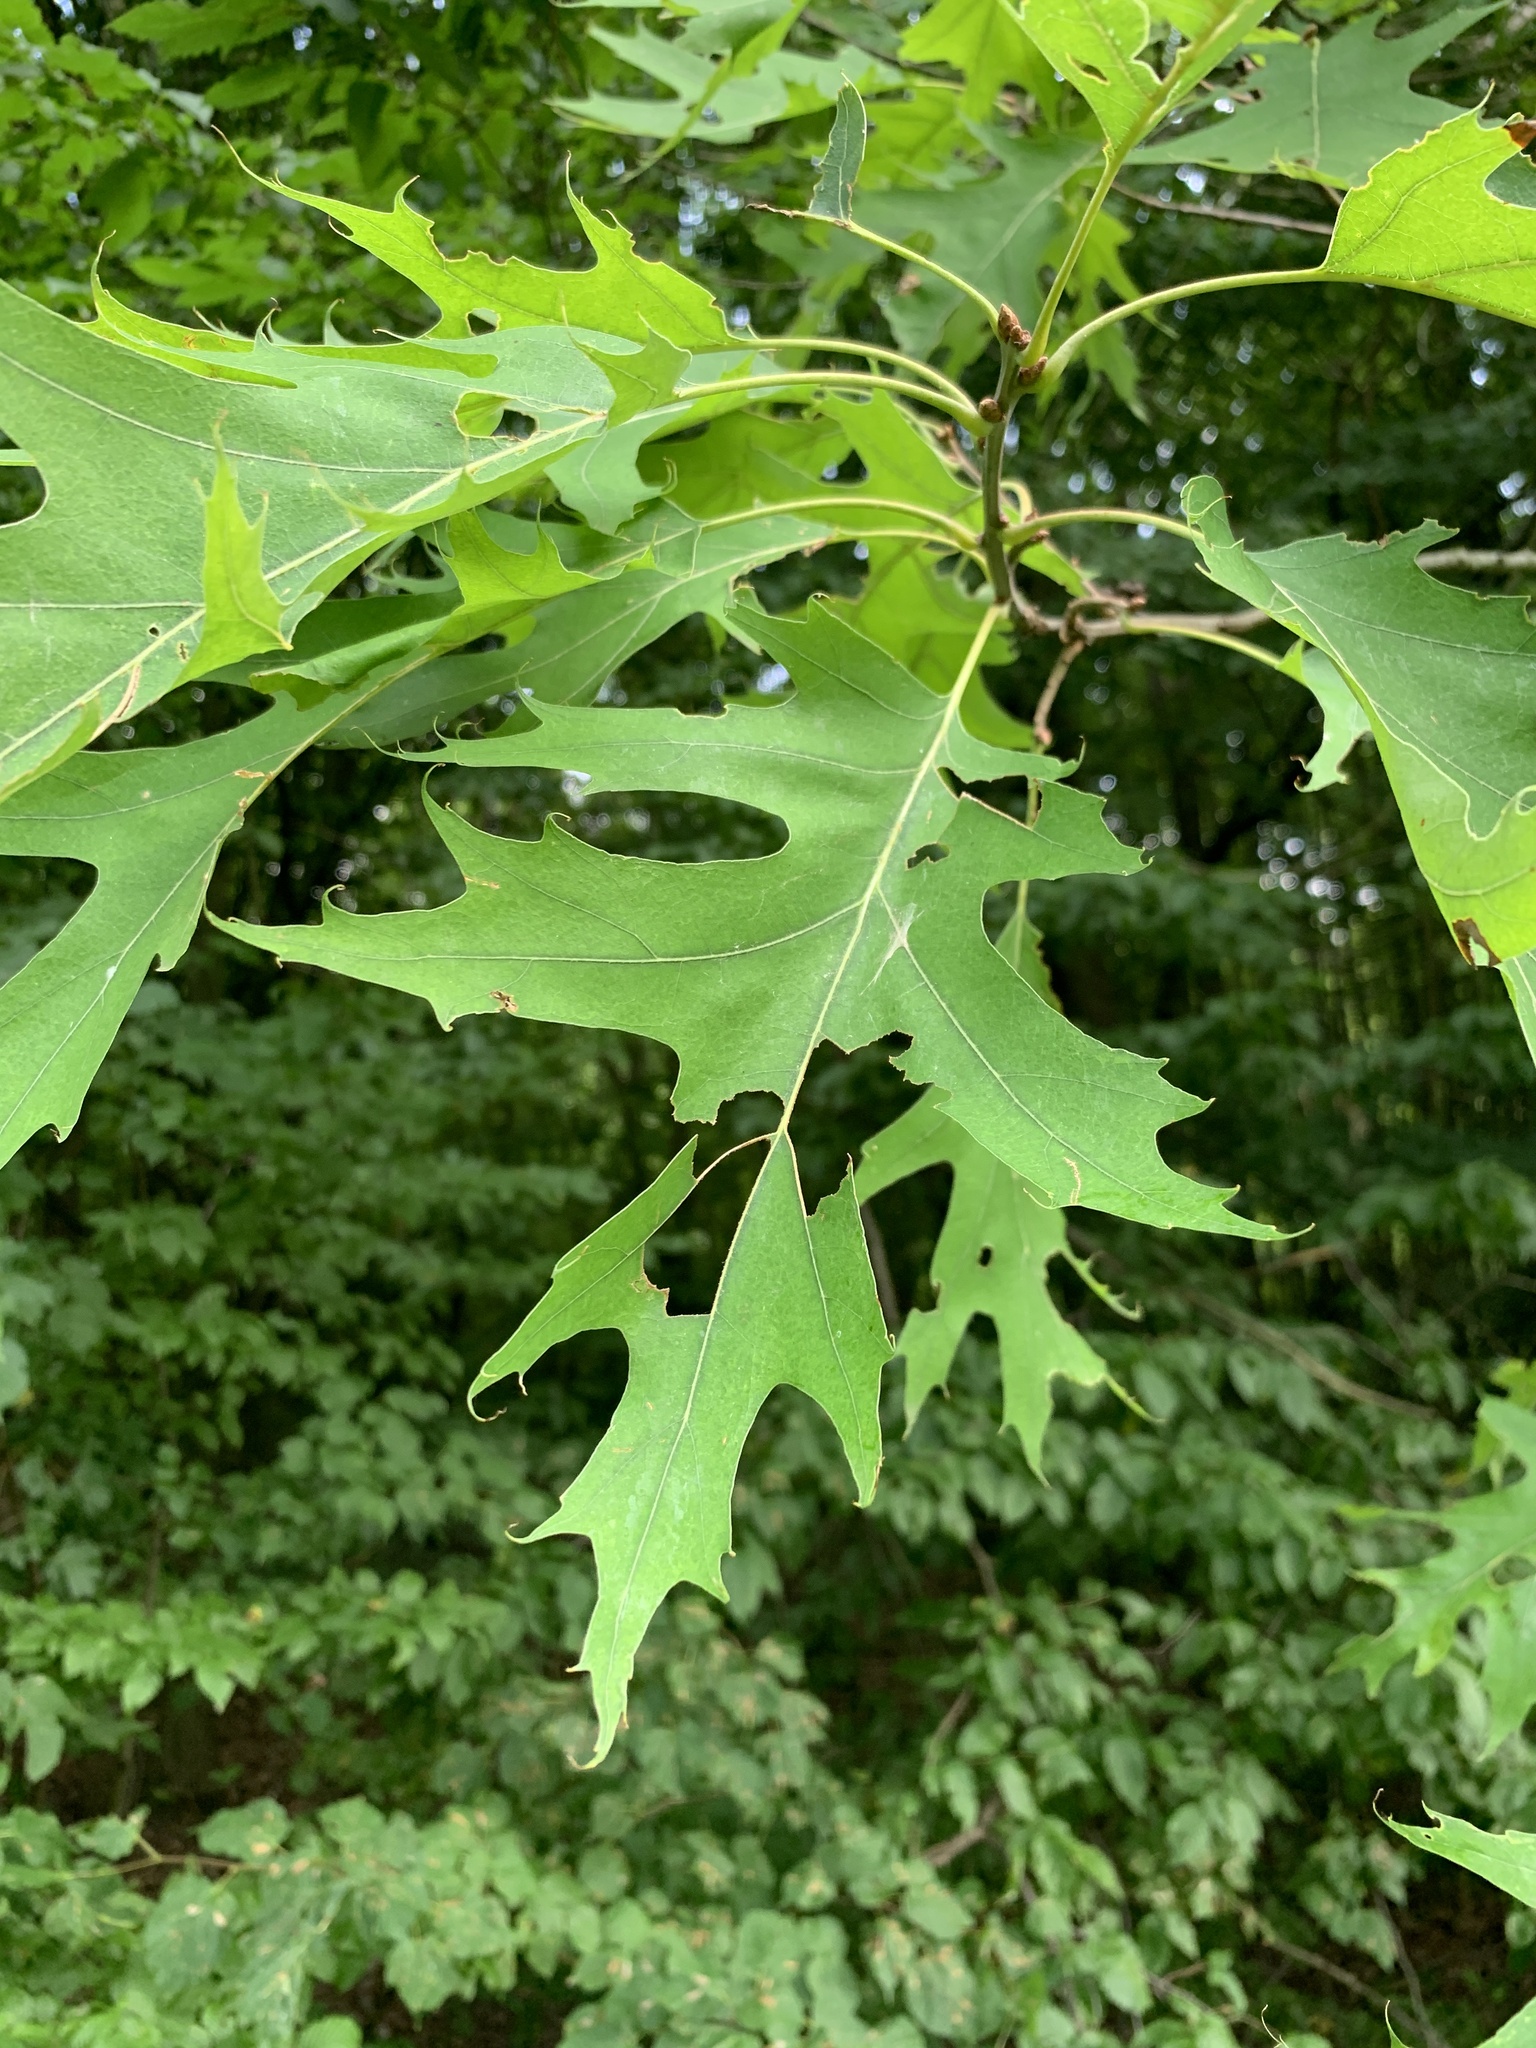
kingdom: Plantae
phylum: Tracheophyta
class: Magnoliopsida
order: Fagales
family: Fagaceae
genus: Quercus
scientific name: Quercus rubra
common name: Red oak
